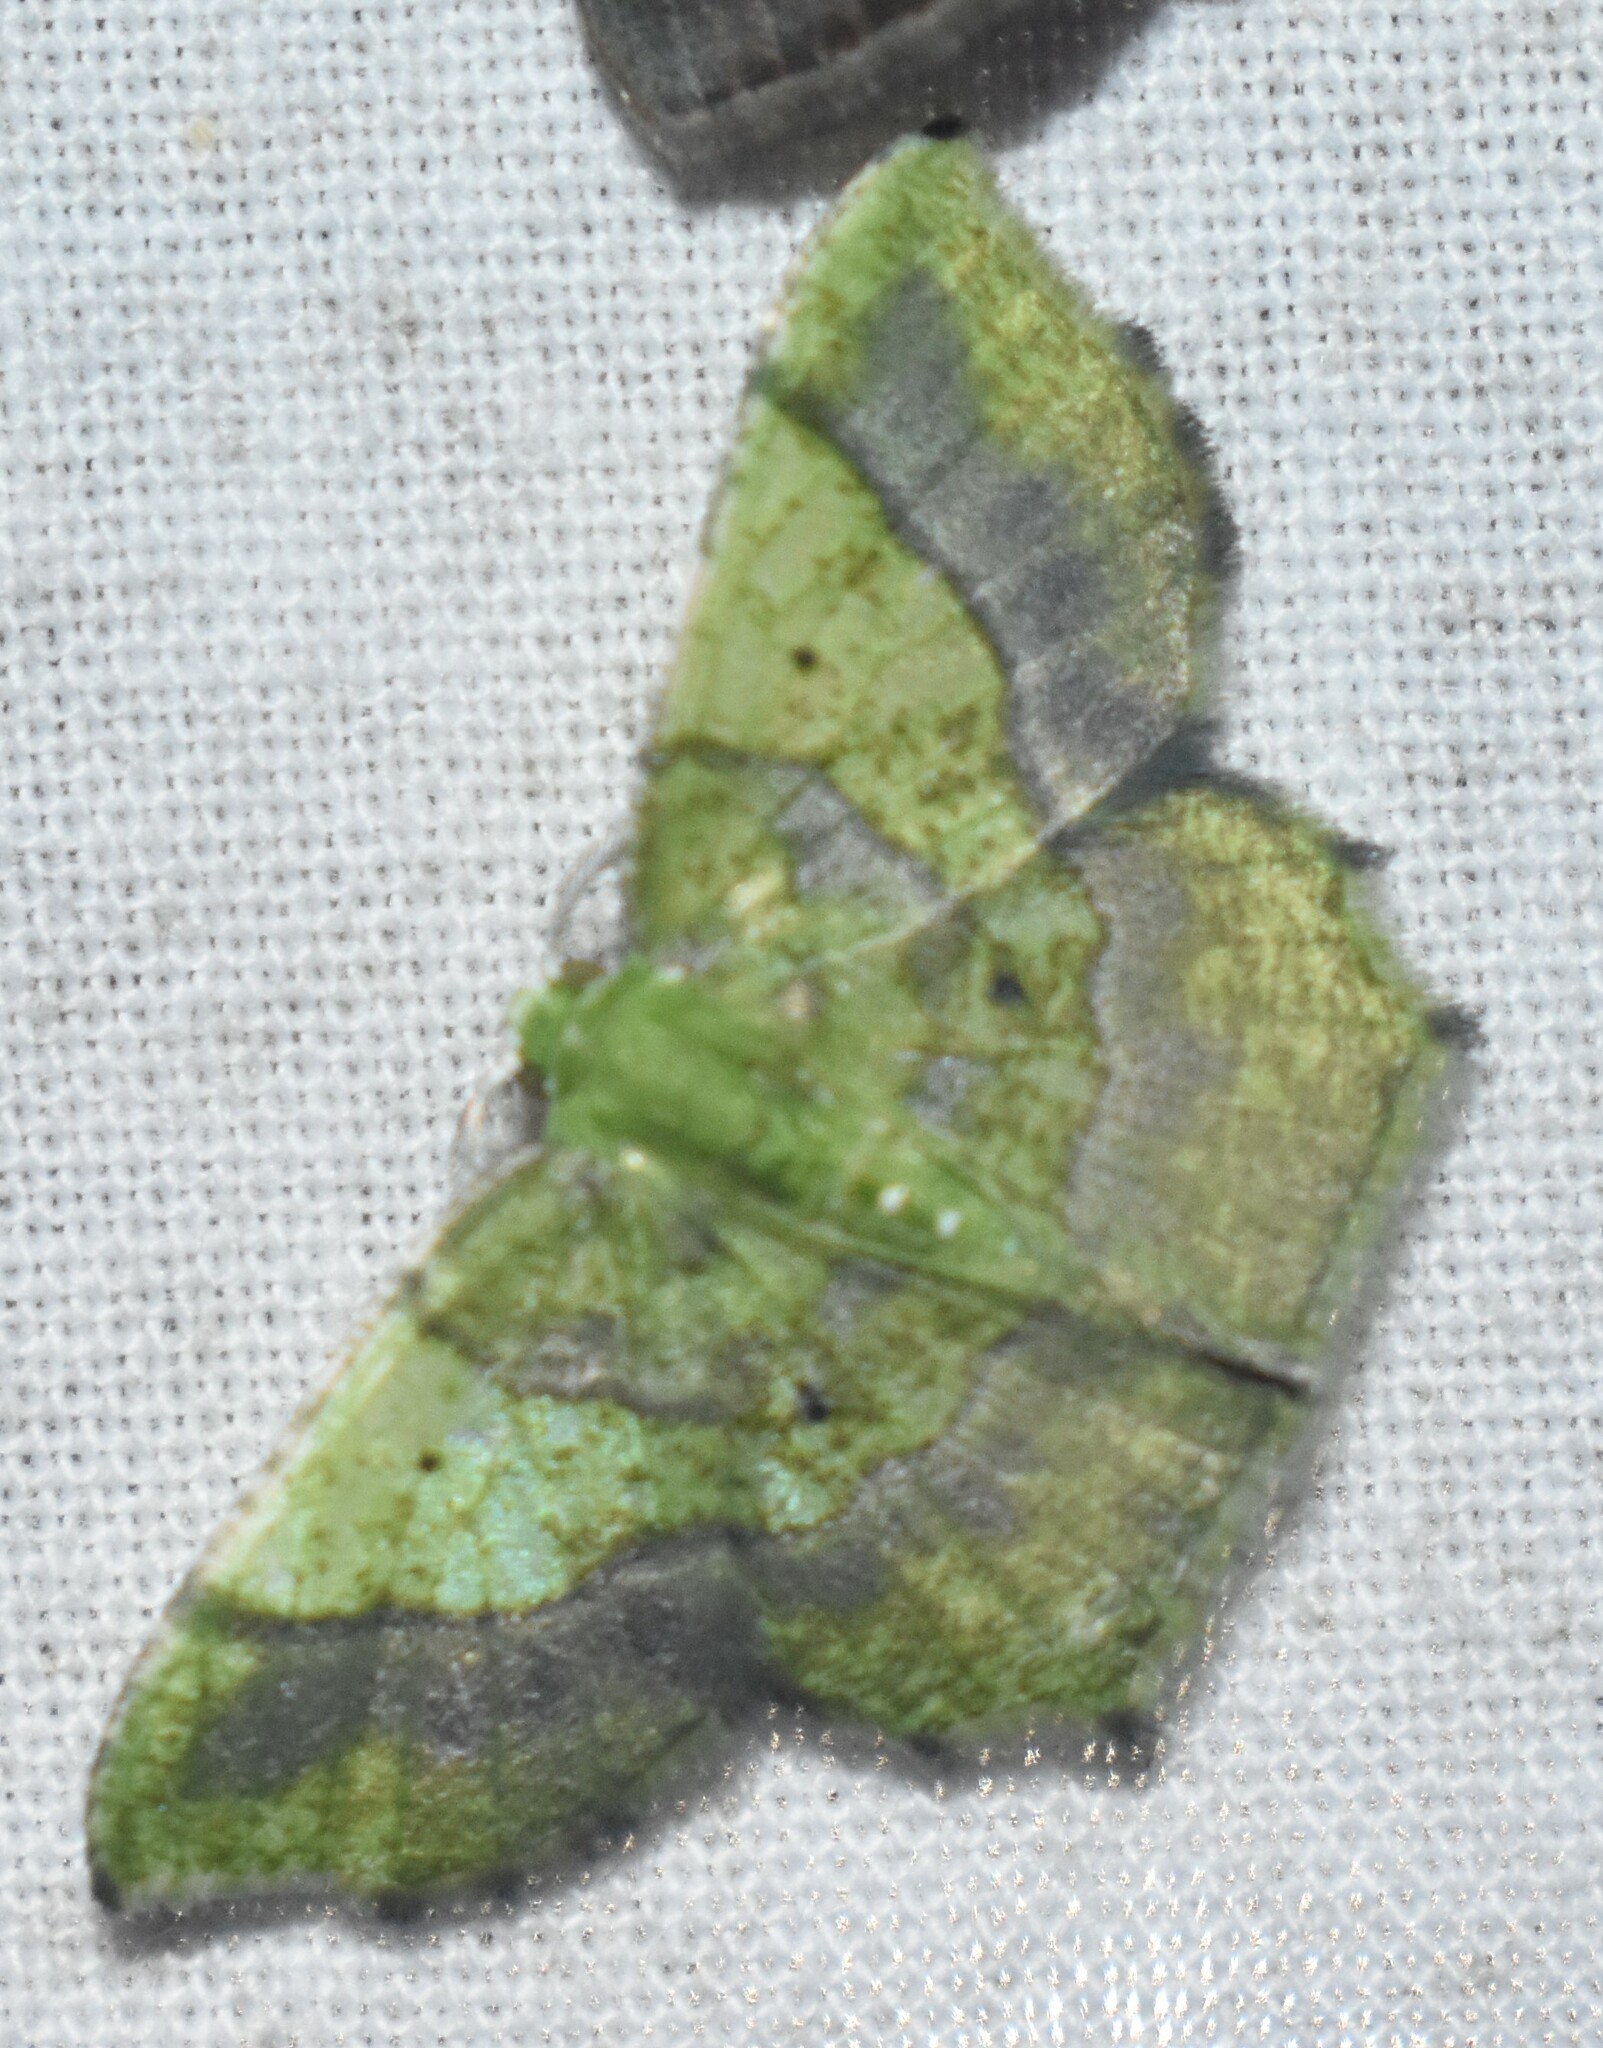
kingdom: Animalia
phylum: Arthropoda
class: Insecta
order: Lepidoptera
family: Geometridae
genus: Neagathia
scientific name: Neagathia corruptata
